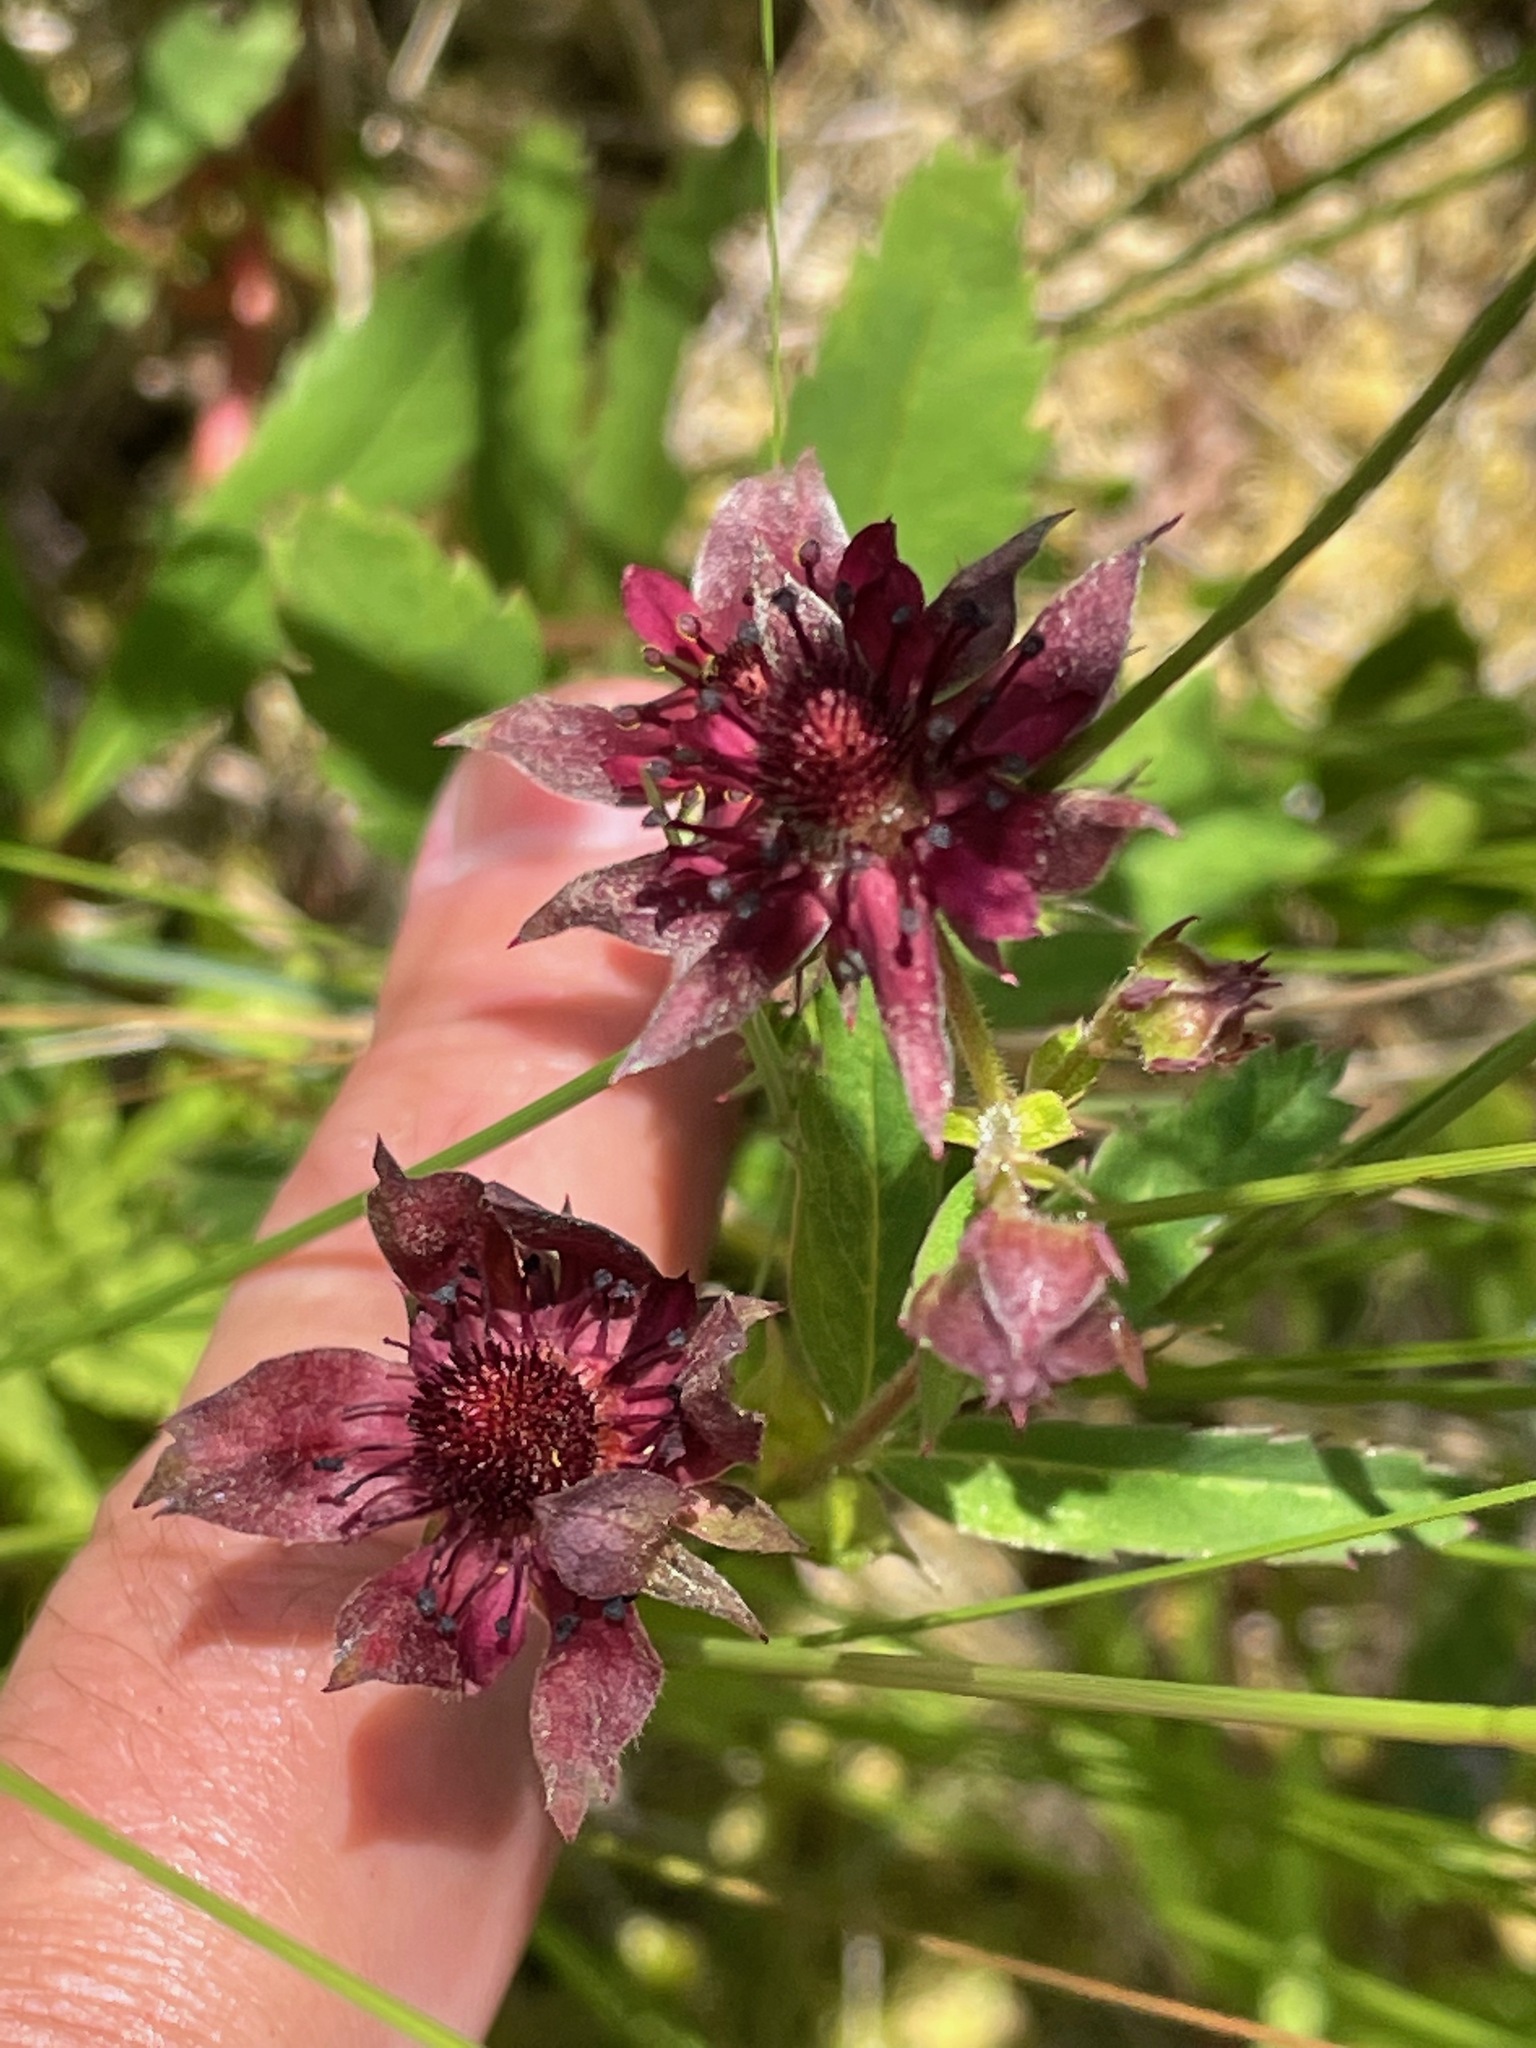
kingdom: Plantae
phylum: Tracheophyta
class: Magnoliopsida
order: Rosales
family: Rosaceae
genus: Comarum
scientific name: Comarum palustre
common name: Marsh cinquefoil
